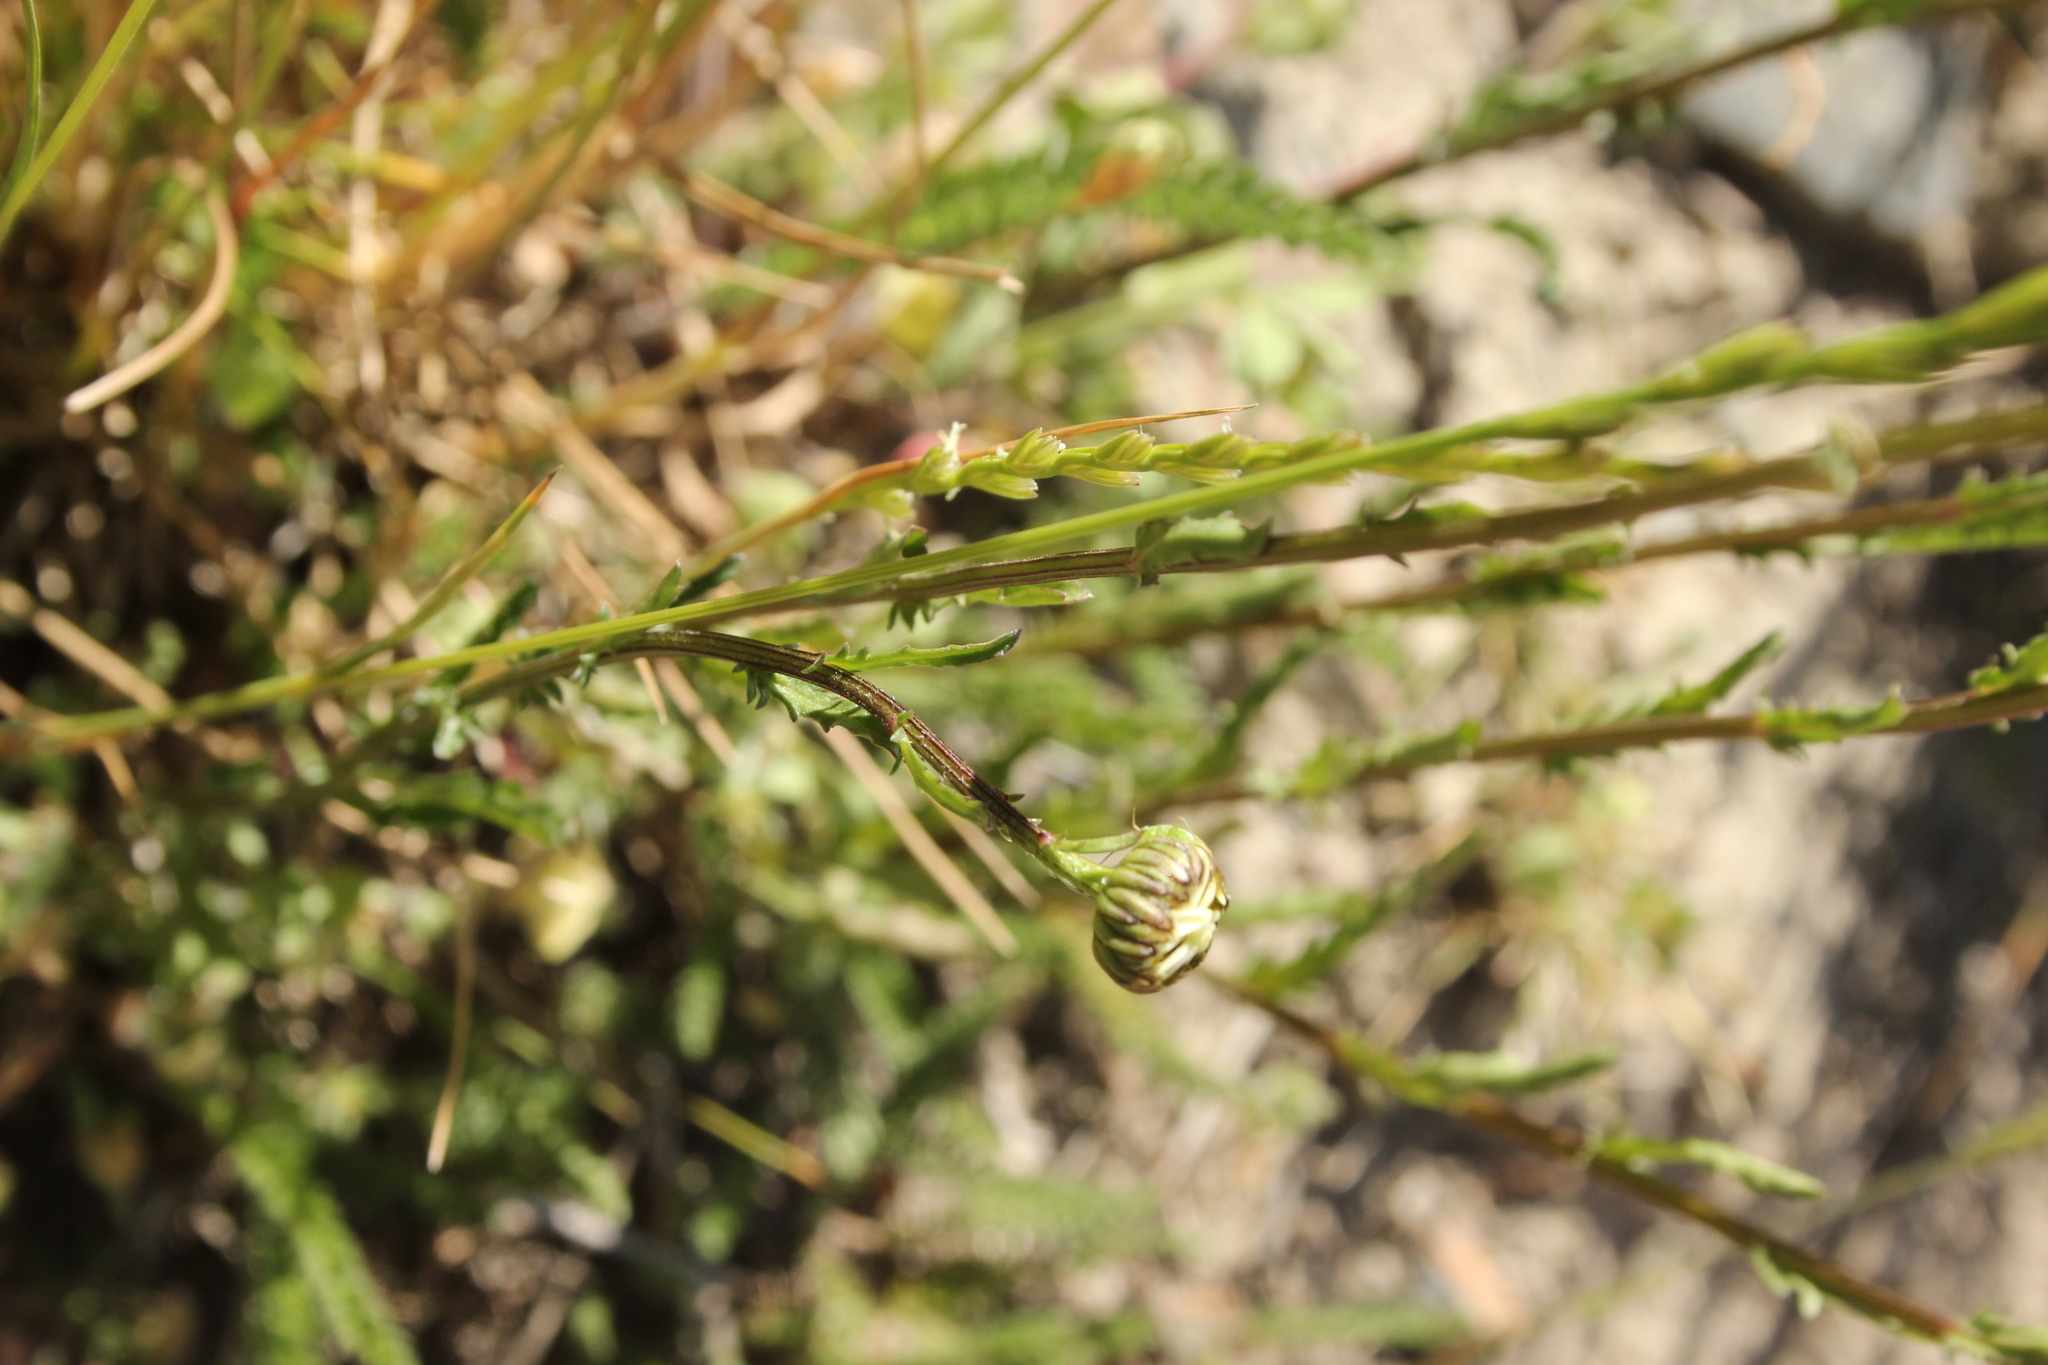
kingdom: Plantae
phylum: Tracheophyta
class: Magnoliopsida
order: Asterales
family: Asteraceae
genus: Leucanthemum
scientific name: Leucanthemum vulgare
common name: Oxeye daisy
